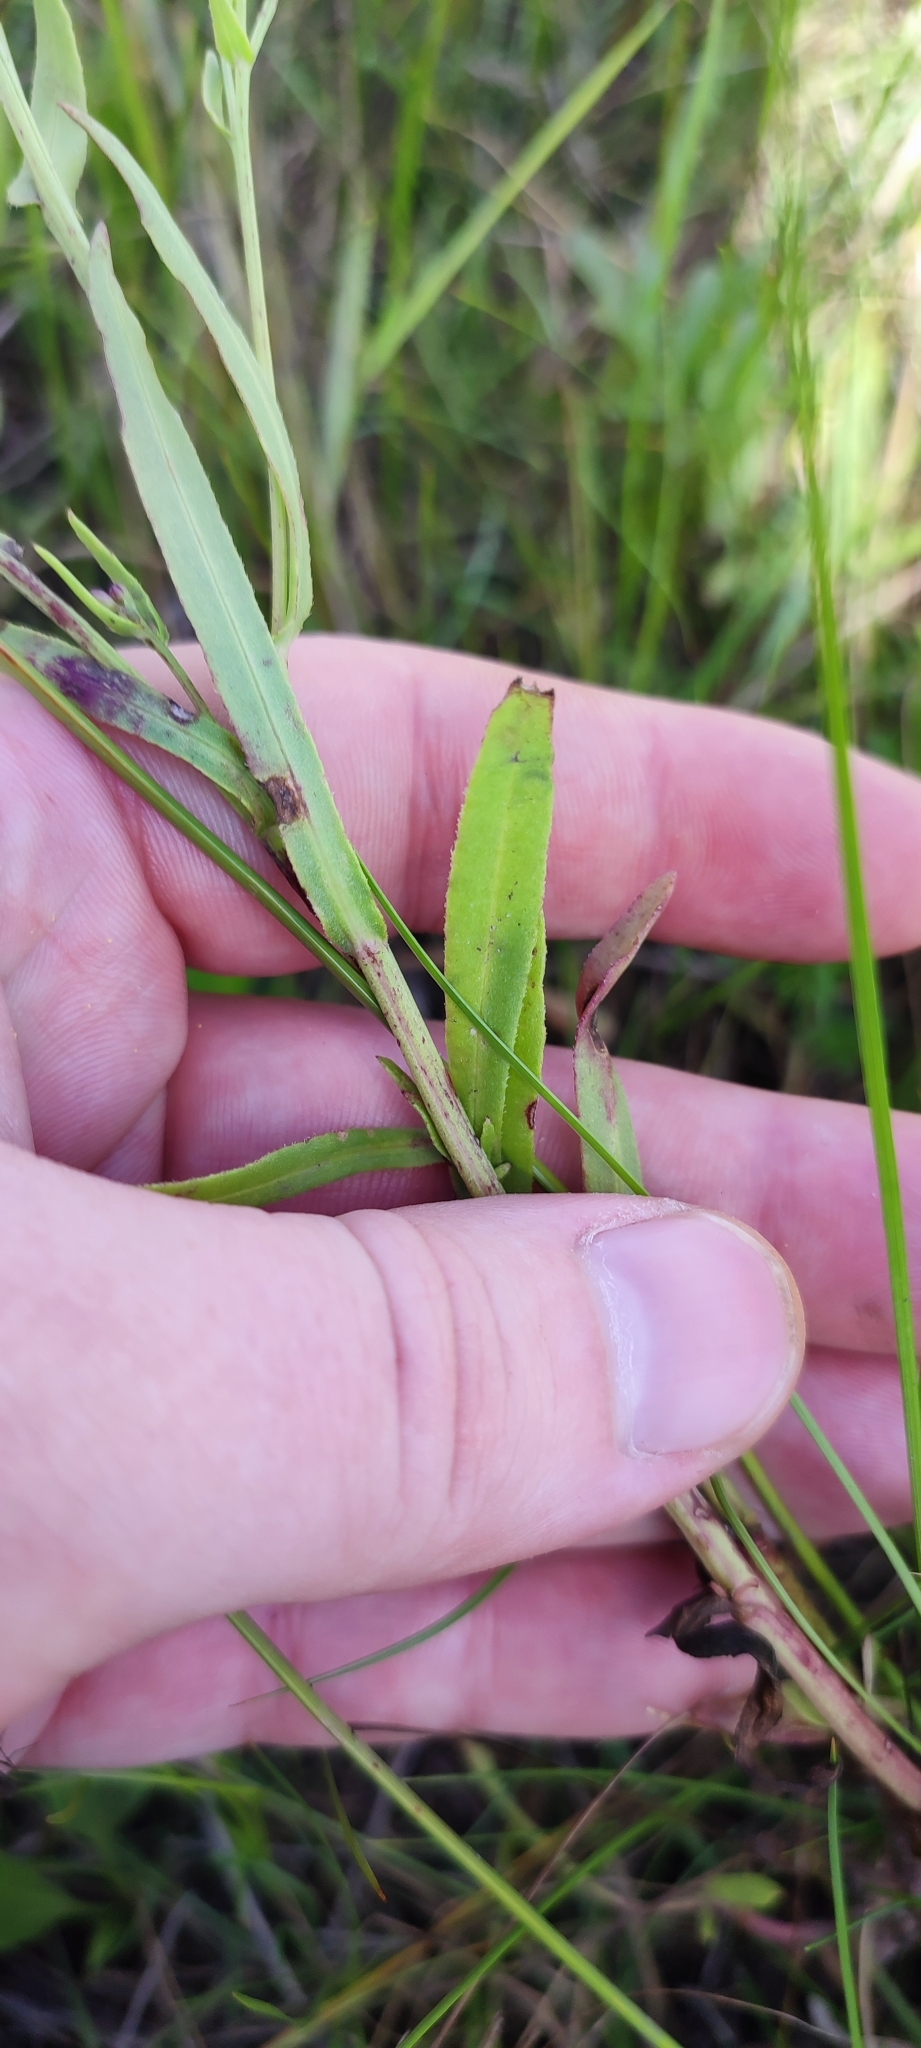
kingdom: Plantae
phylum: Tracheophyta
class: Magnoliopsida
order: Asterales
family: Asteraceae
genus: Tripolium
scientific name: Tripolium pannonicum
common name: Sea aster
